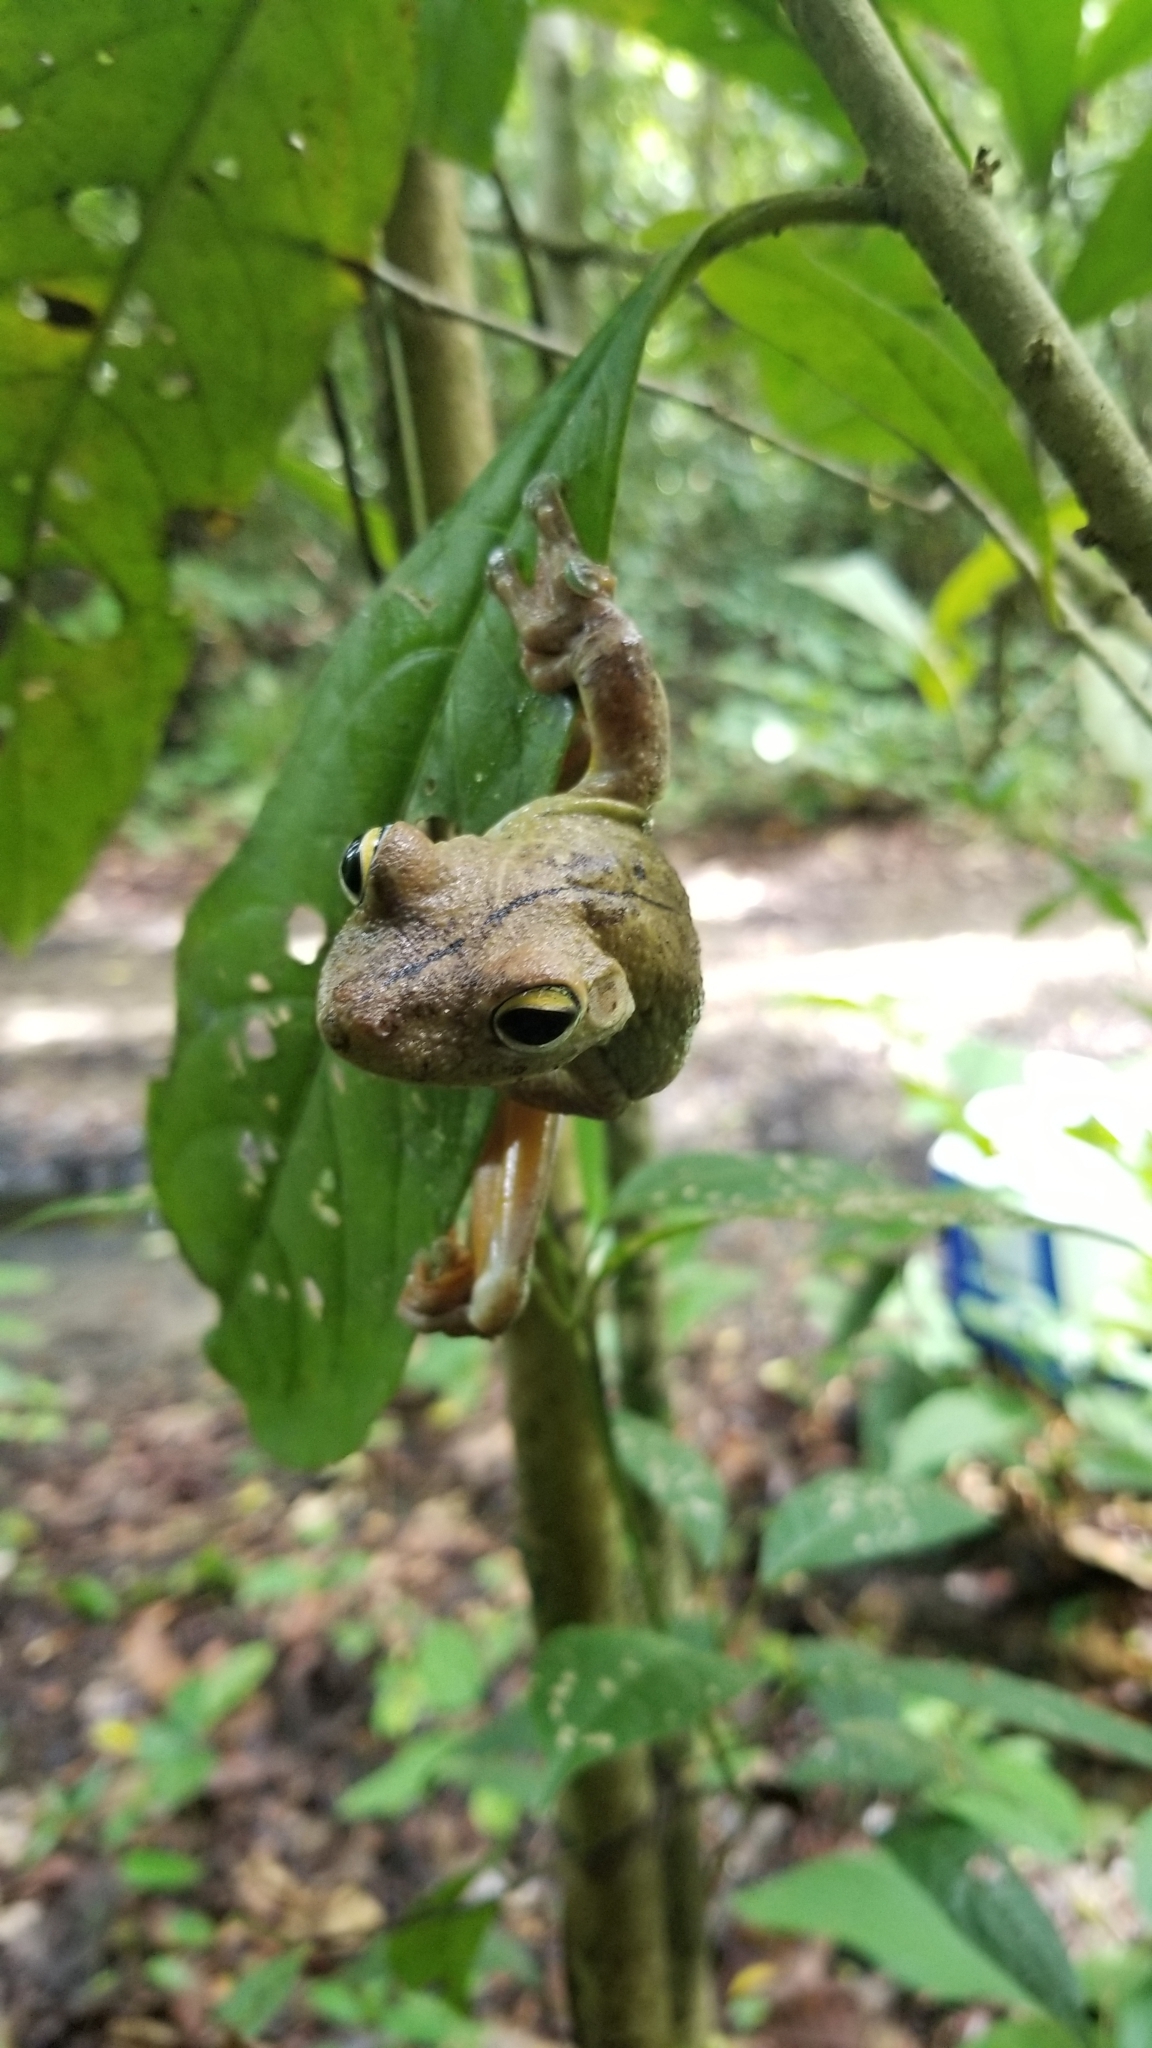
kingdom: Animalia
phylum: Chordata
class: Amphibia
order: Anura
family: Hylidae
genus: Boana
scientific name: Boana rosenbergi
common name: Rosenberg´s gladiator treefrog
